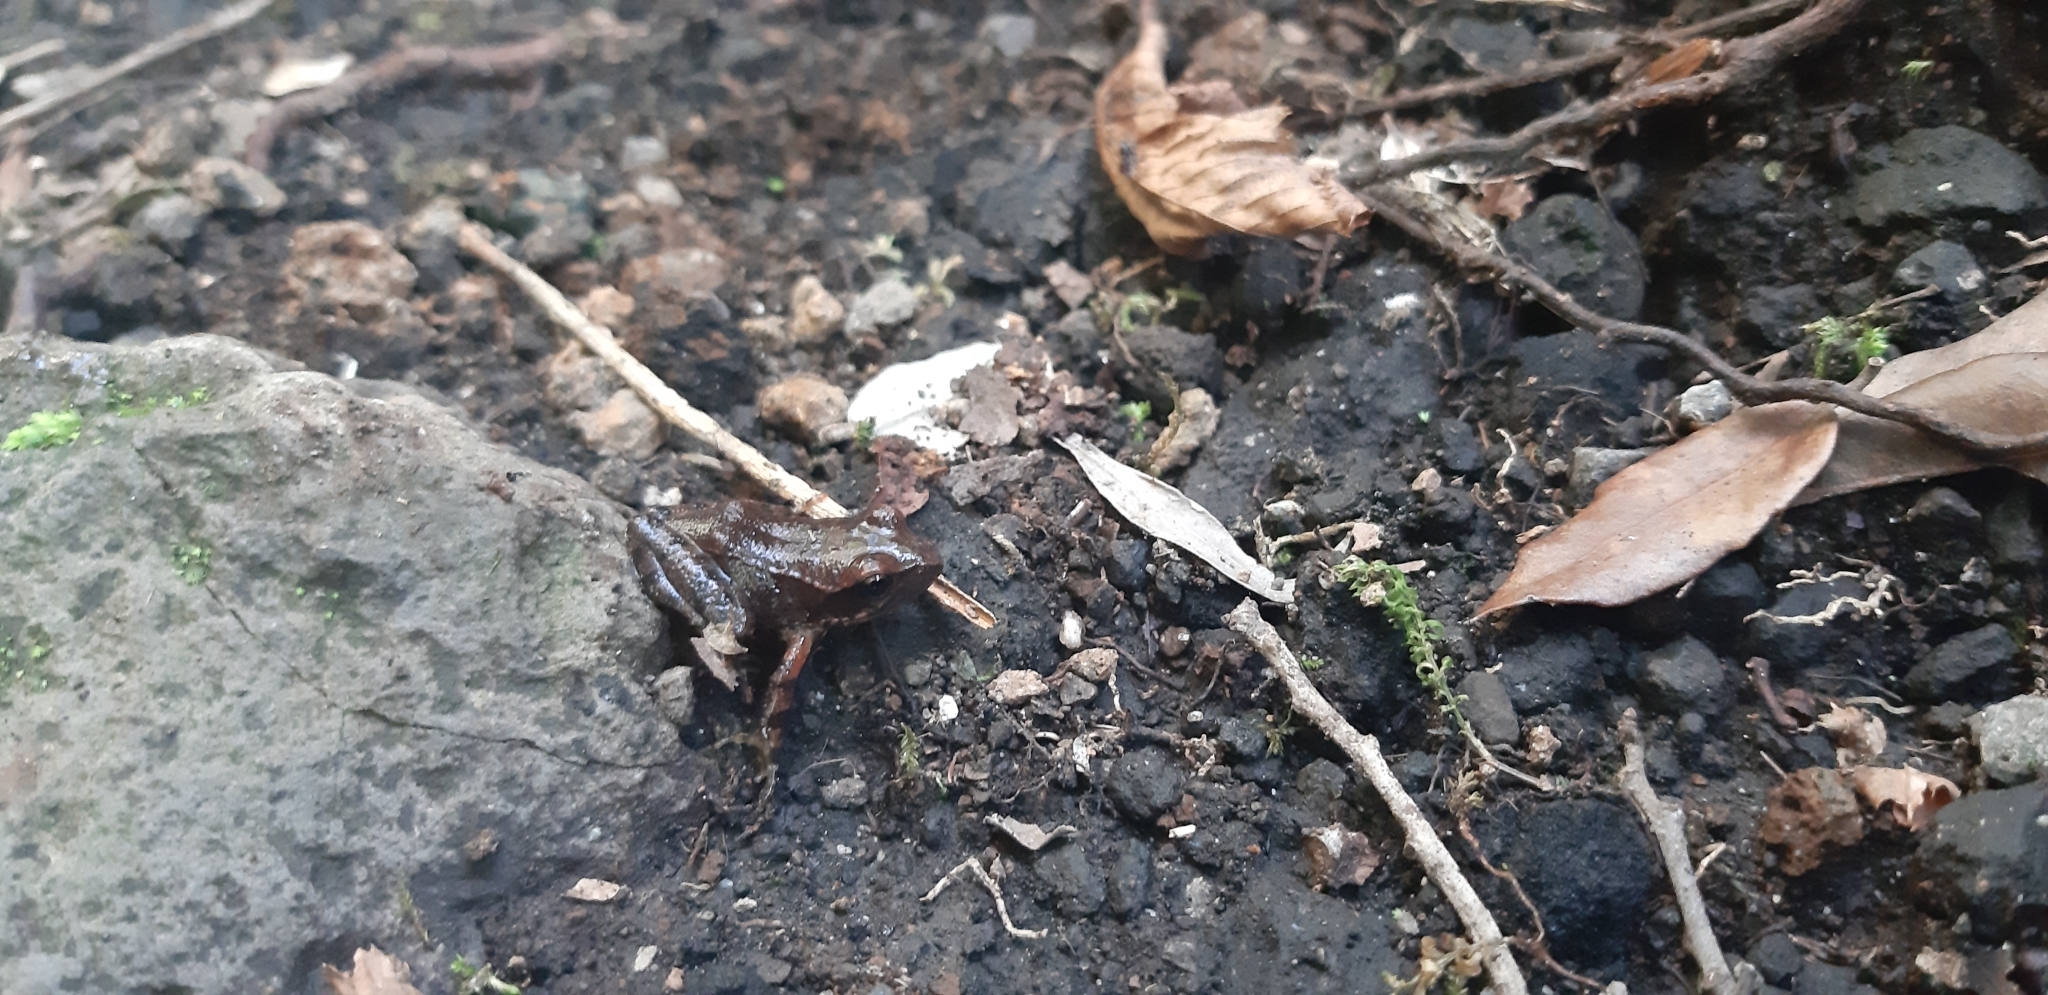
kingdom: Animalia
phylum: Chordata
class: Amphibia
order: Anura
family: Ranidae
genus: Rana
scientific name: Rana italica
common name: Italian stream frog
